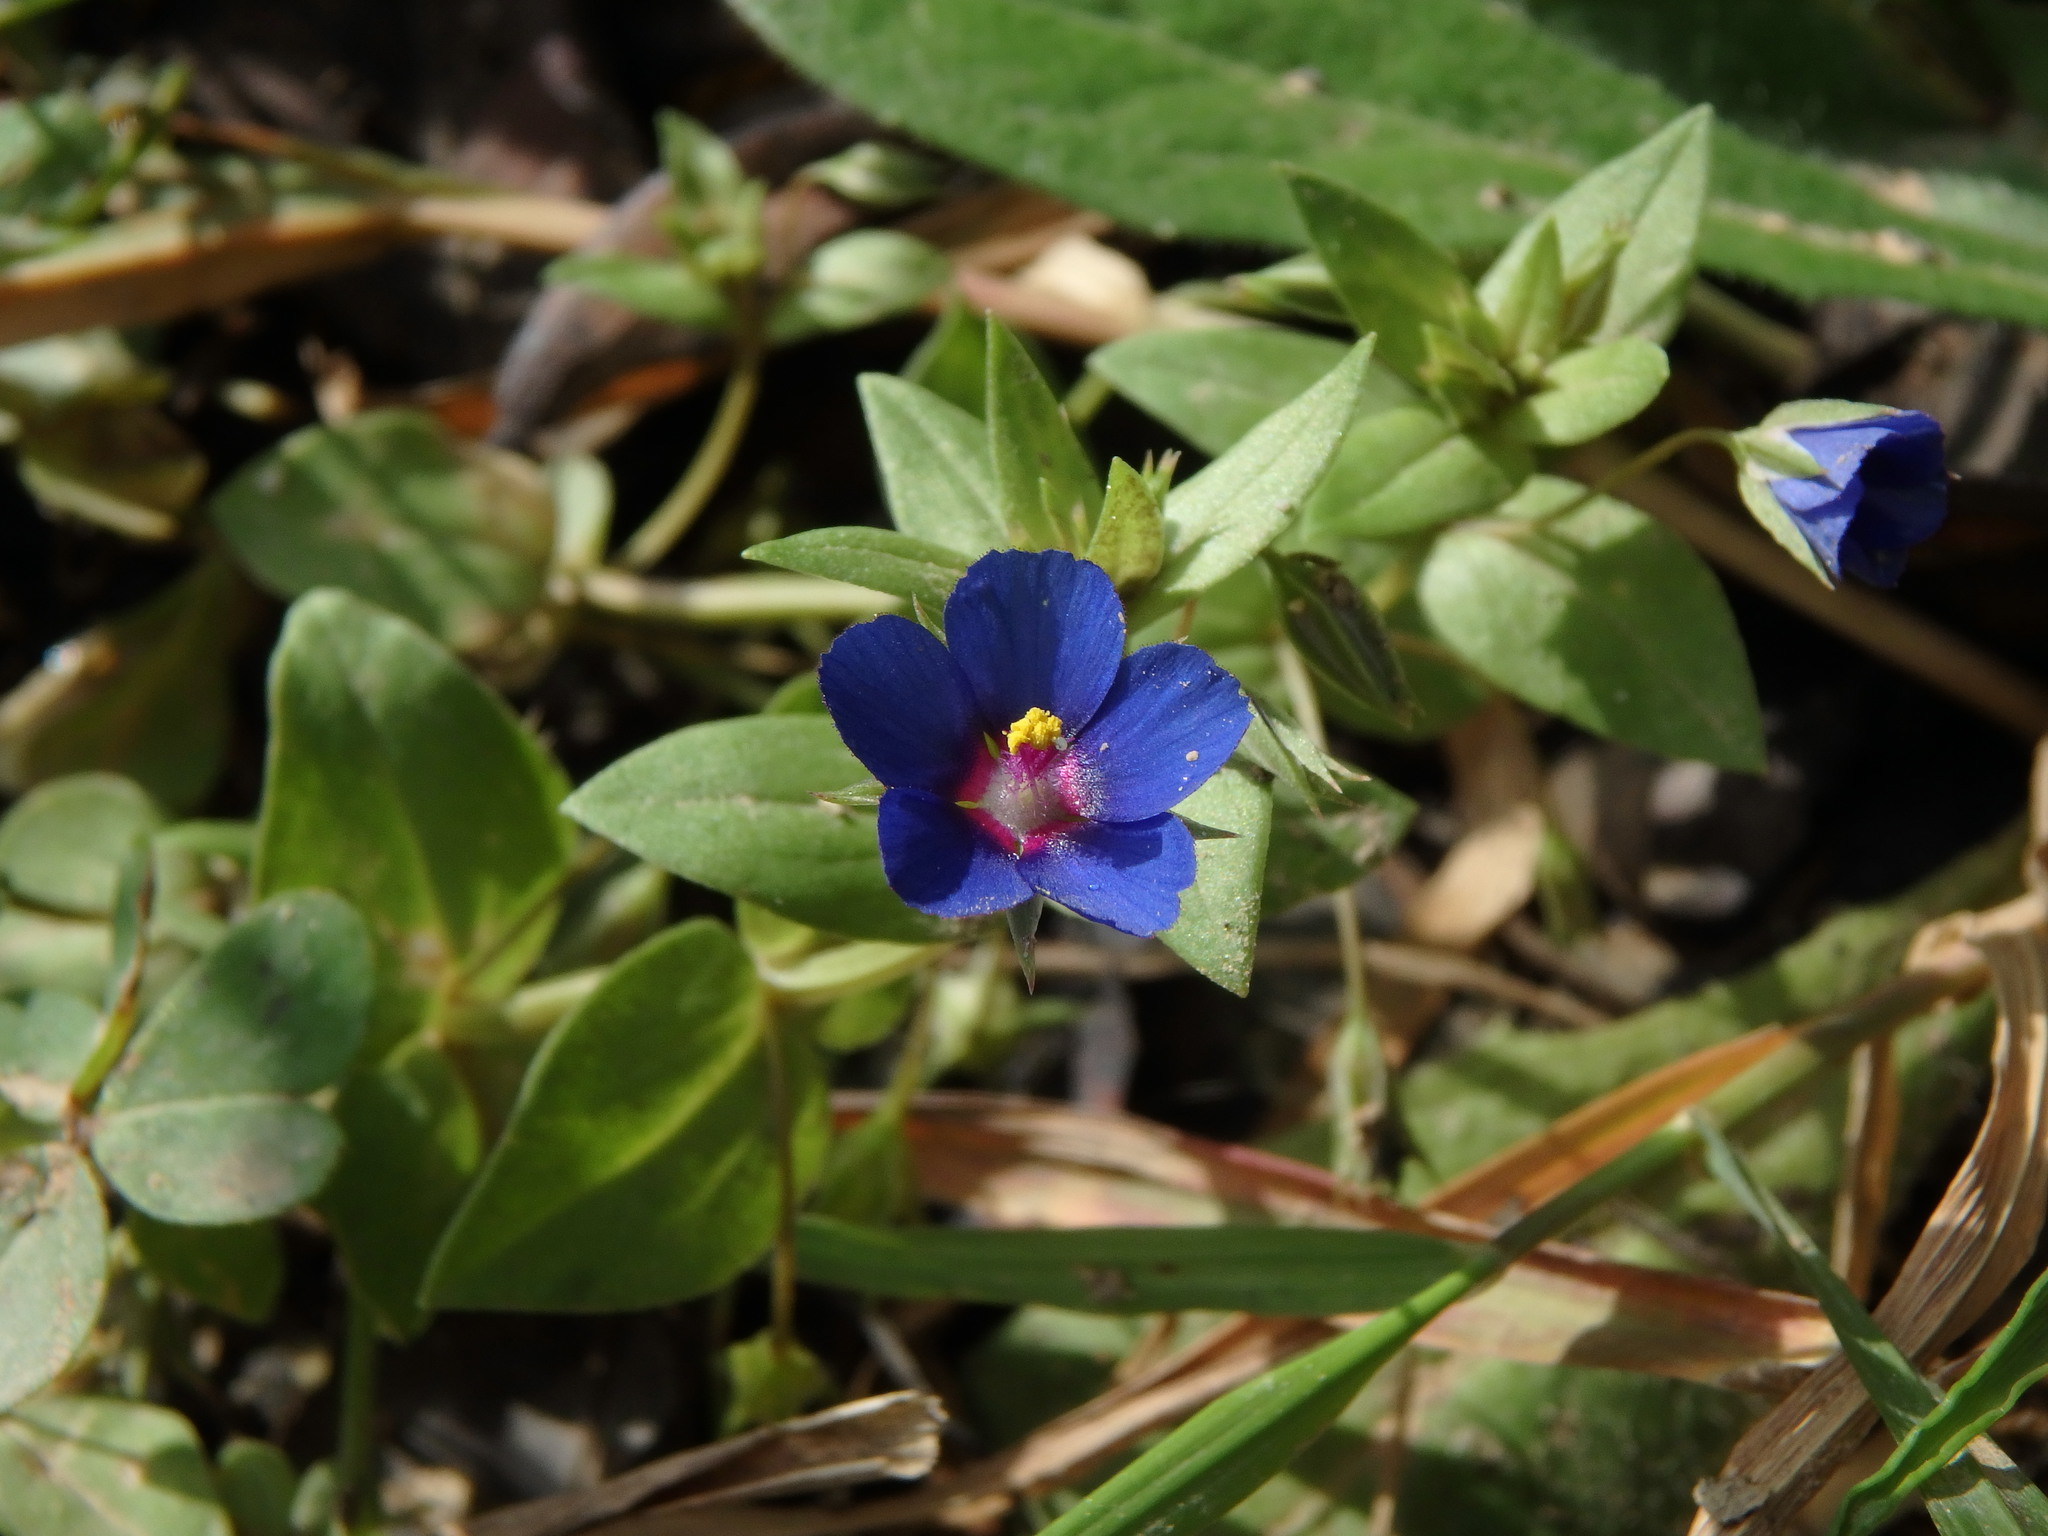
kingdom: Plantae
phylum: Tracheophyta
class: Magnoliopsida
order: Ericales
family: Primulaceae
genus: Lysimachia
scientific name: Lysimachia arvensis
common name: Scarlet pimpernel
